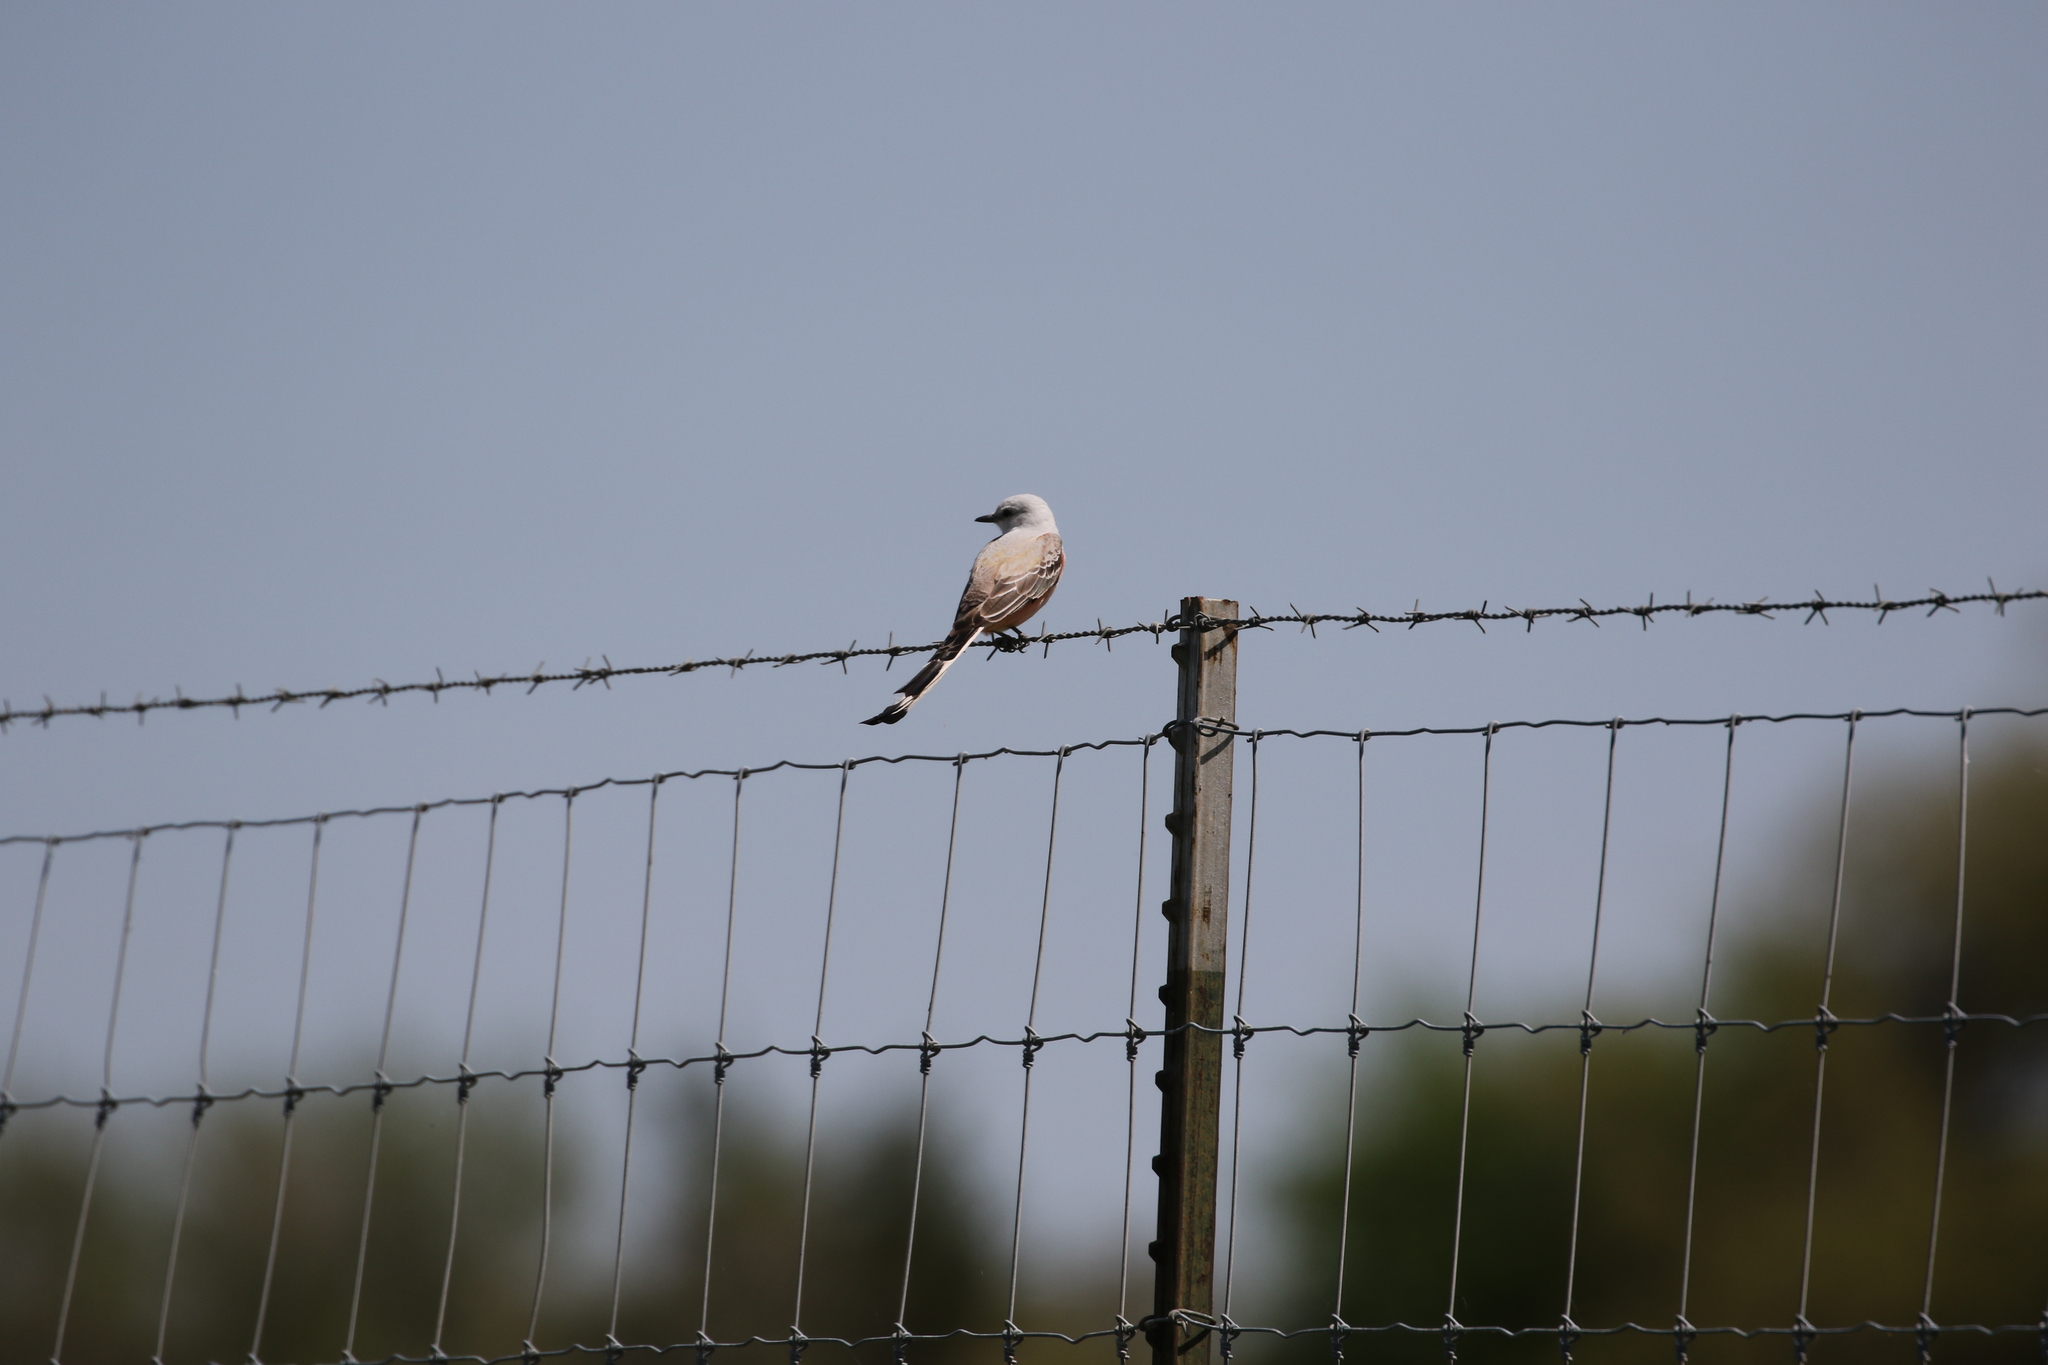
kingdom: Animalia
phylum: Chordata
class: Aves
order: Passeriformes
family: Tyrannidae
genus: Tyrannus
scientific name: Tyrannus forficatus
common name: Scissor-tailed flycatcher
